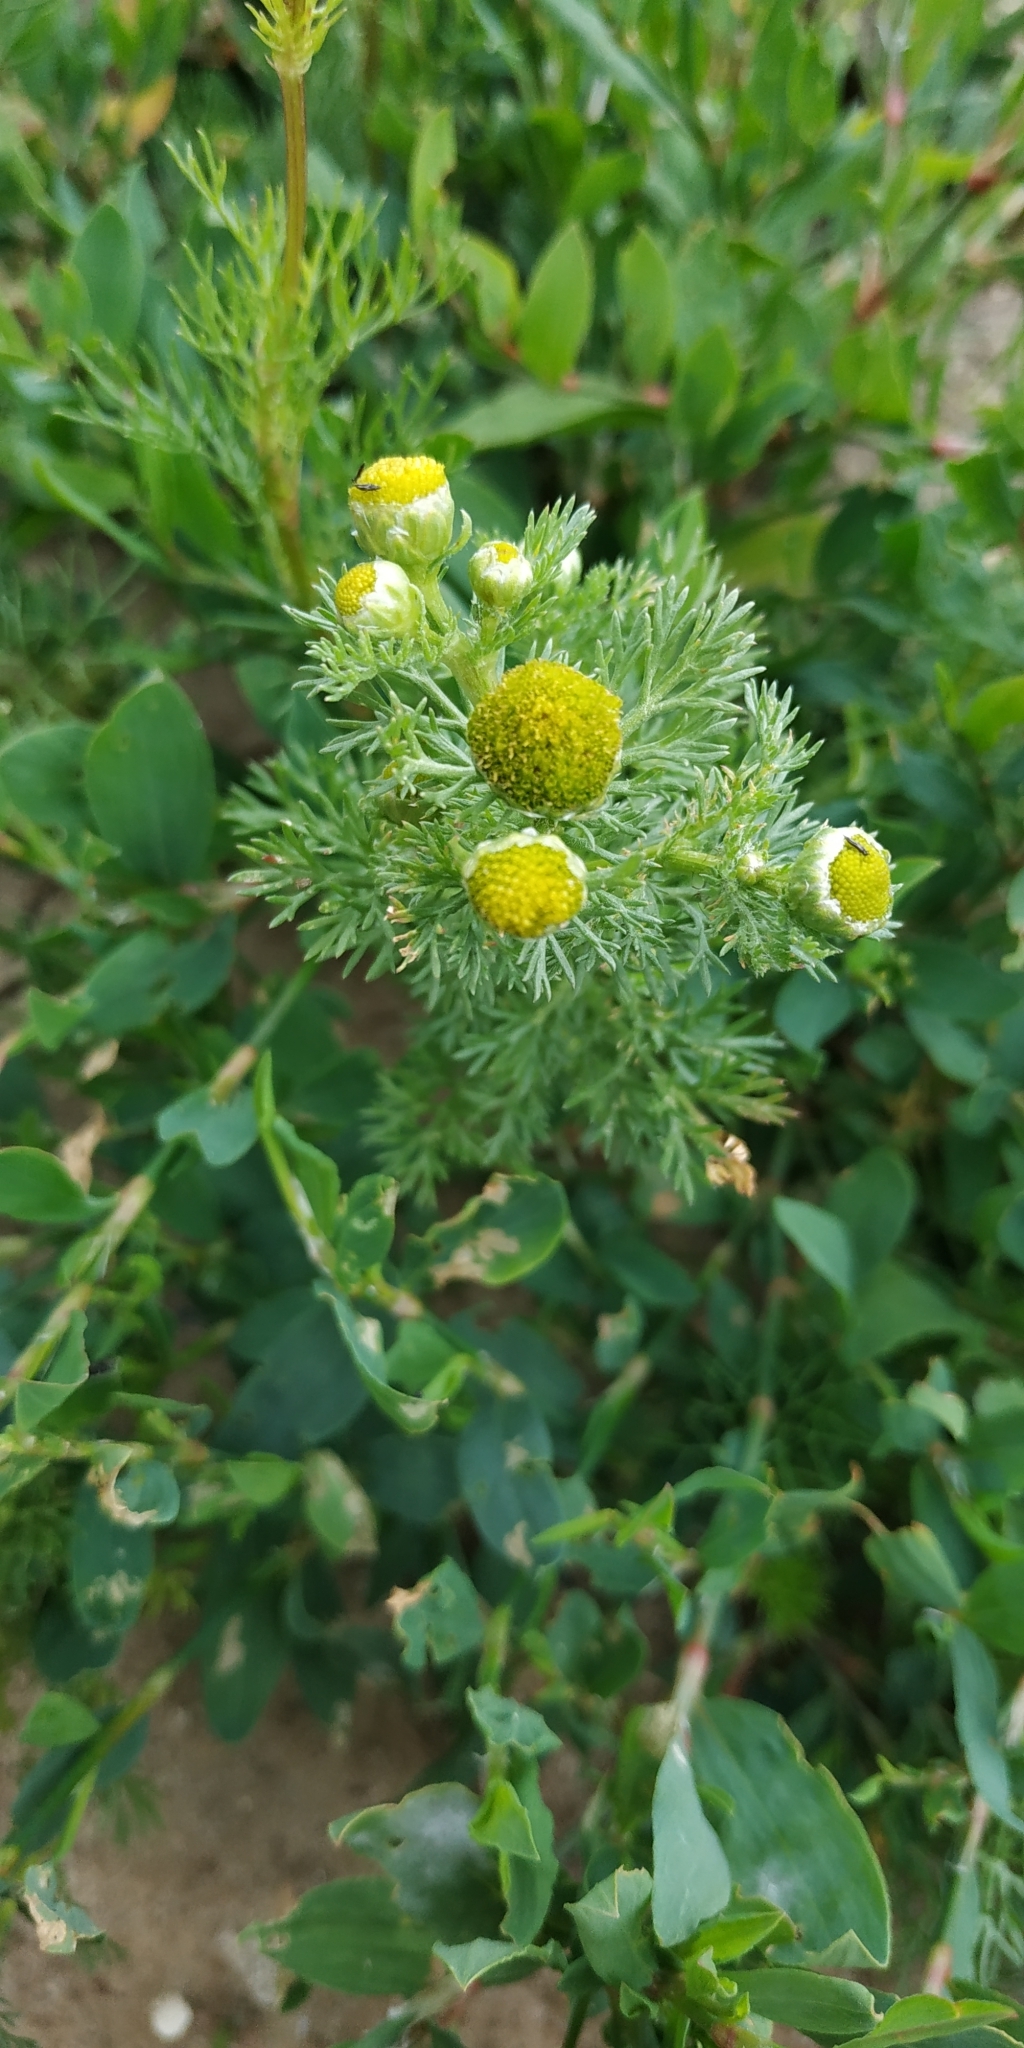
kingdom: Plantae
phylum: Tracheophyta
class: Magnoliopsida
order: Asterales
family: Asteraceae
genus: Matricaria
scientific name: Matricaria discoidea
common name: Disc mayweed
